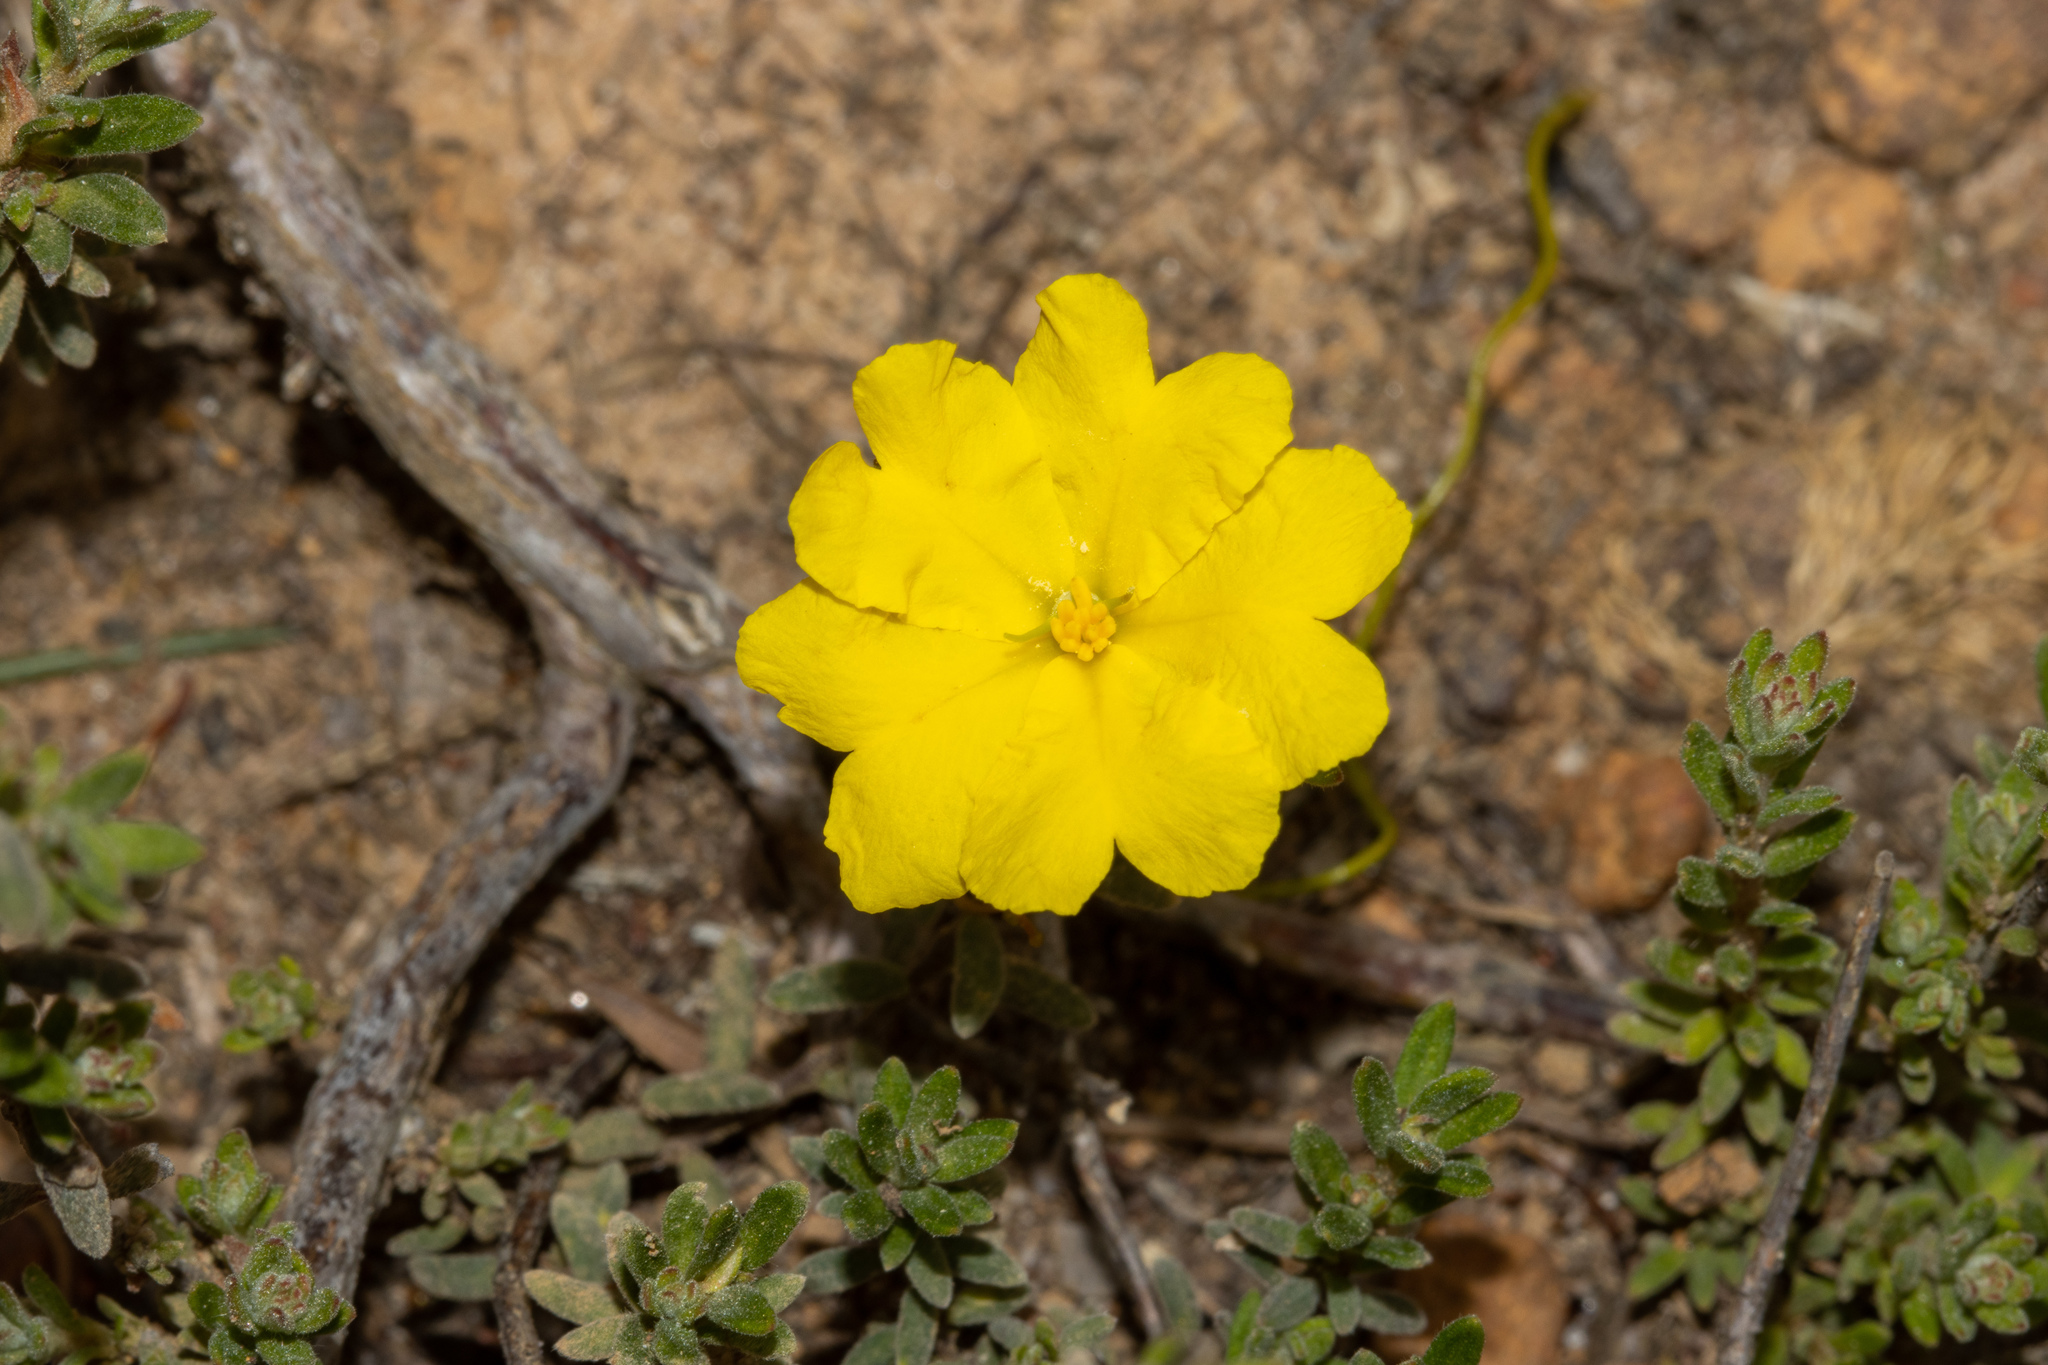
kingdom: Plantae
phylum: Tracheophyta
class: Magnoliopsida
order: Dilleniales
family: Dilleniaceae
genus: Hibbertia
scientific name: Hibbertia crinita
